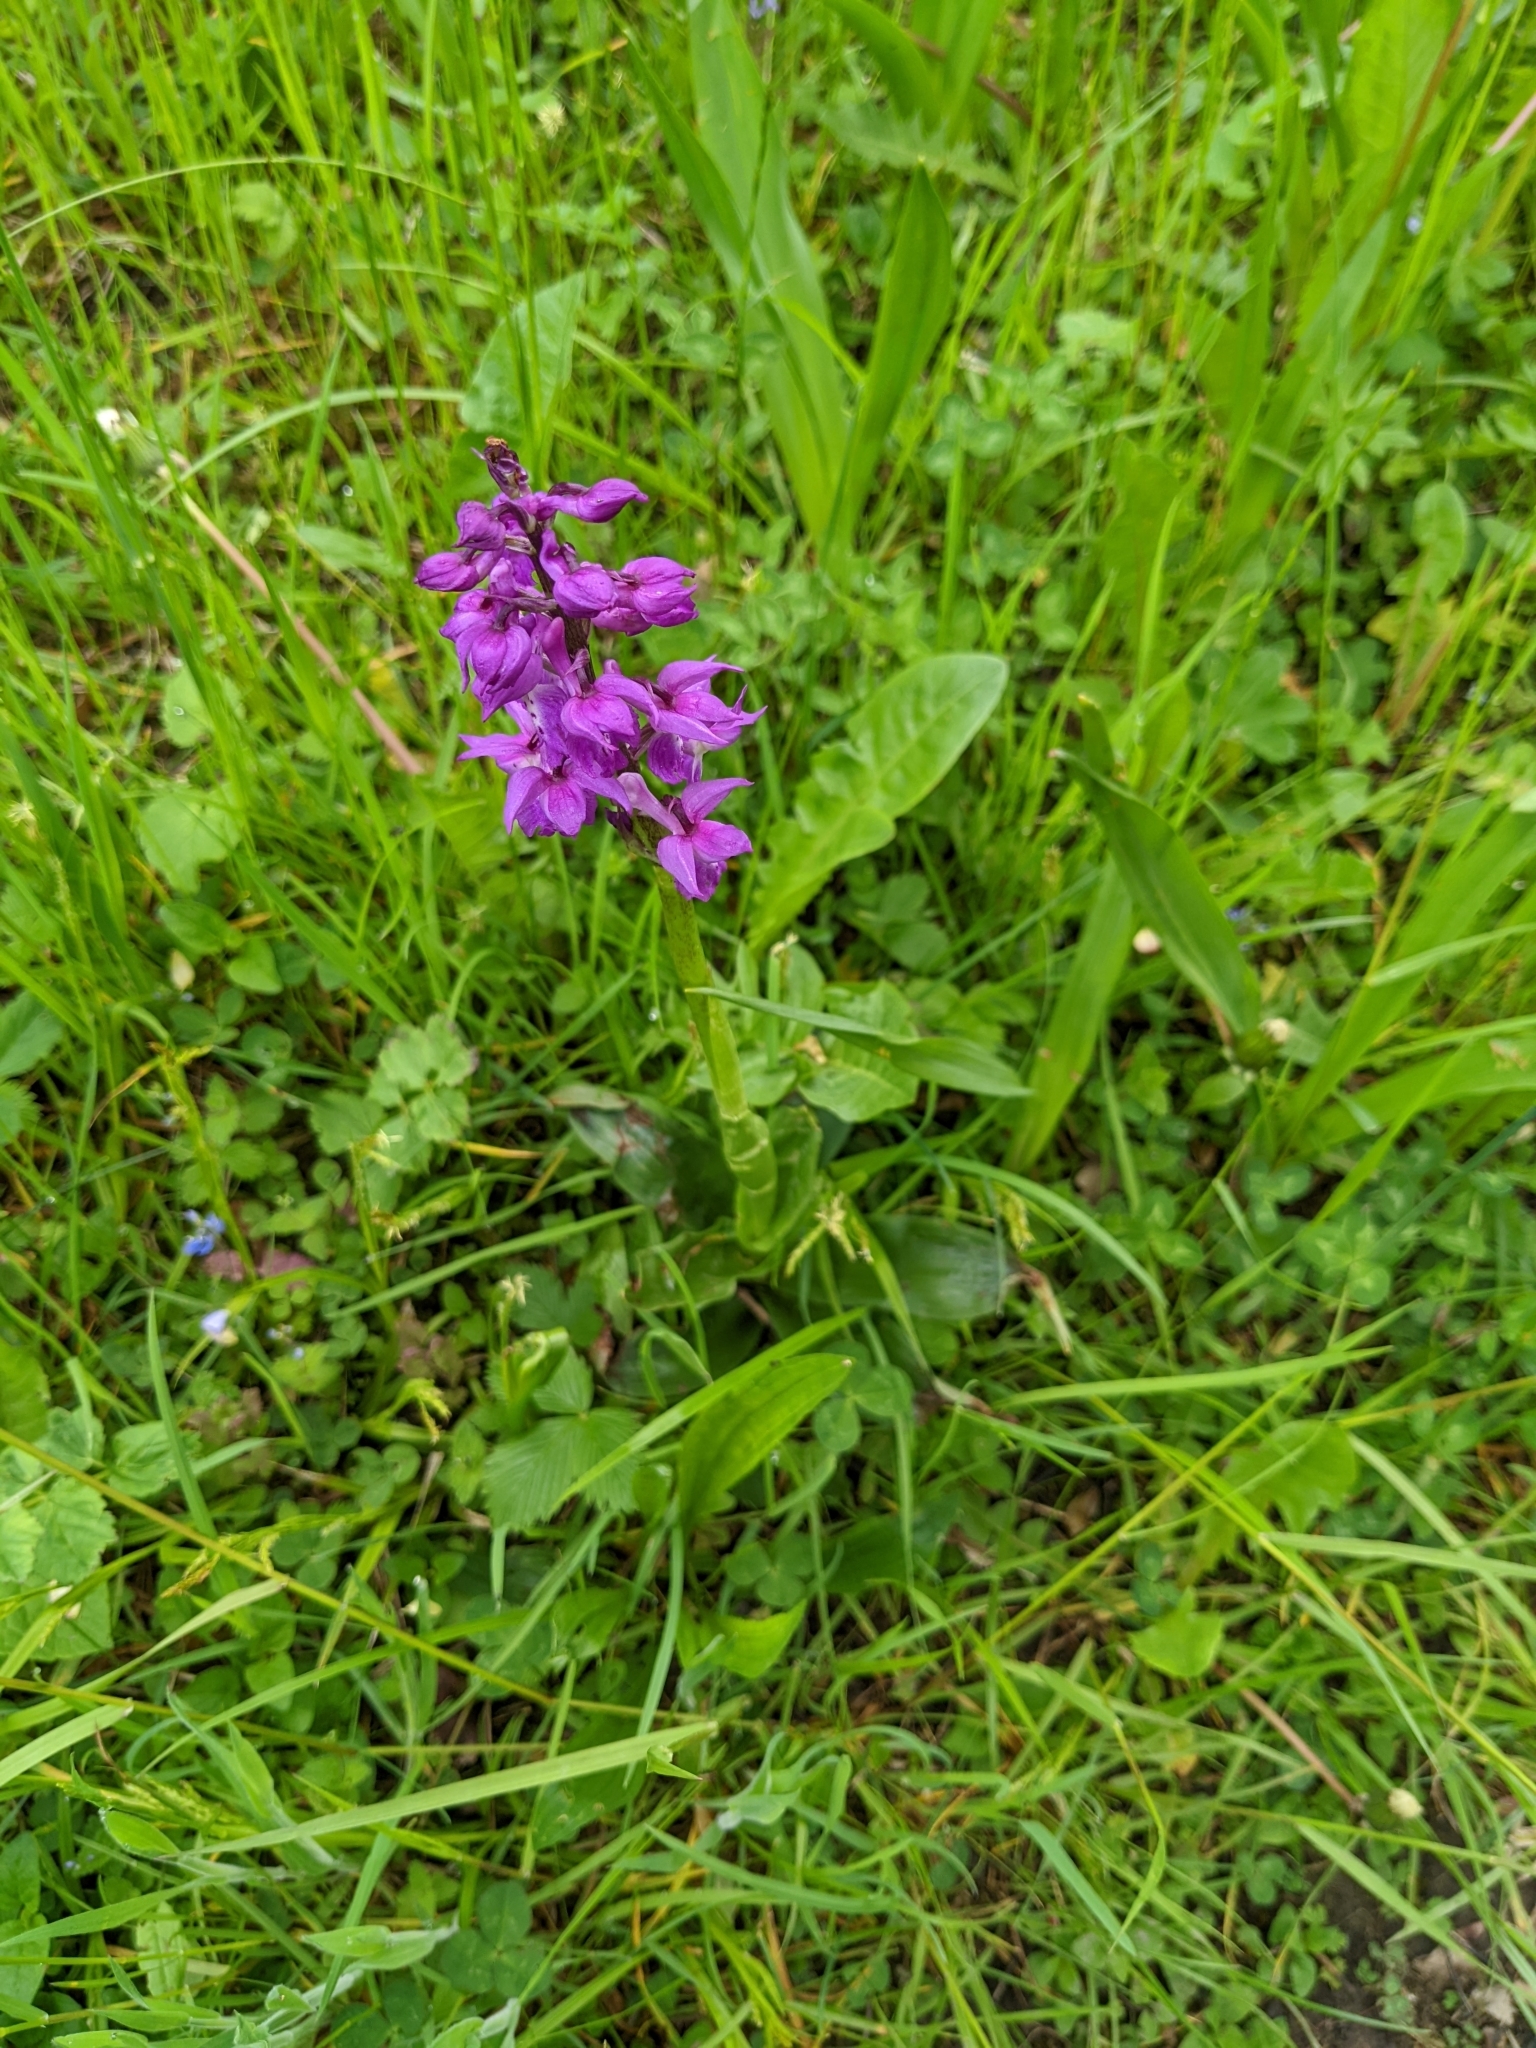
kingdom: Plantae
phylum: Tracheophyta
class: Liliopsida
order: Asparagales
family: Orchidaceae
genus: Orchis
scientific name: Orchis mascula
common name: Early-purple orchid
